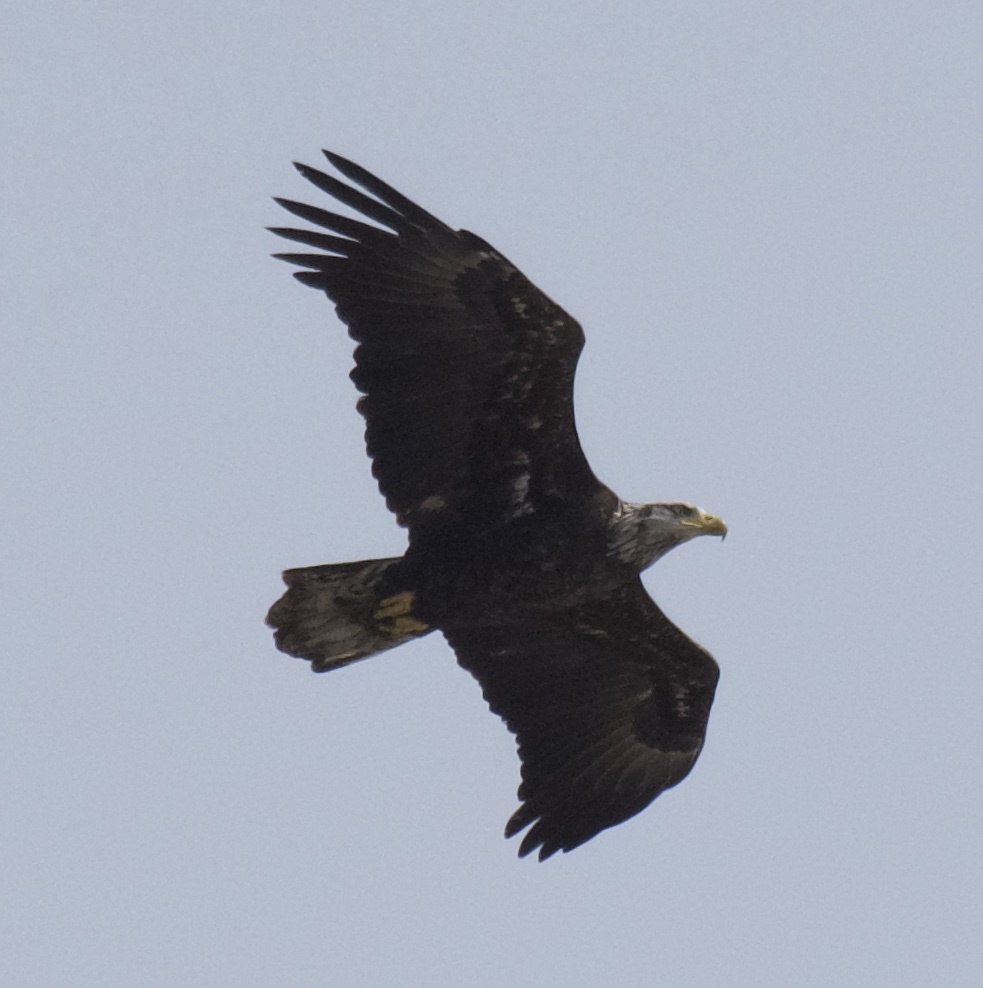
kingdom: Animalia
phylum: Chordata
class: Aves
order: Accipitriformes
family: Accipitridae
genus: Haliaeetus
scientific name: Haliaeetus leucocephalus
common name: Bald eagle
